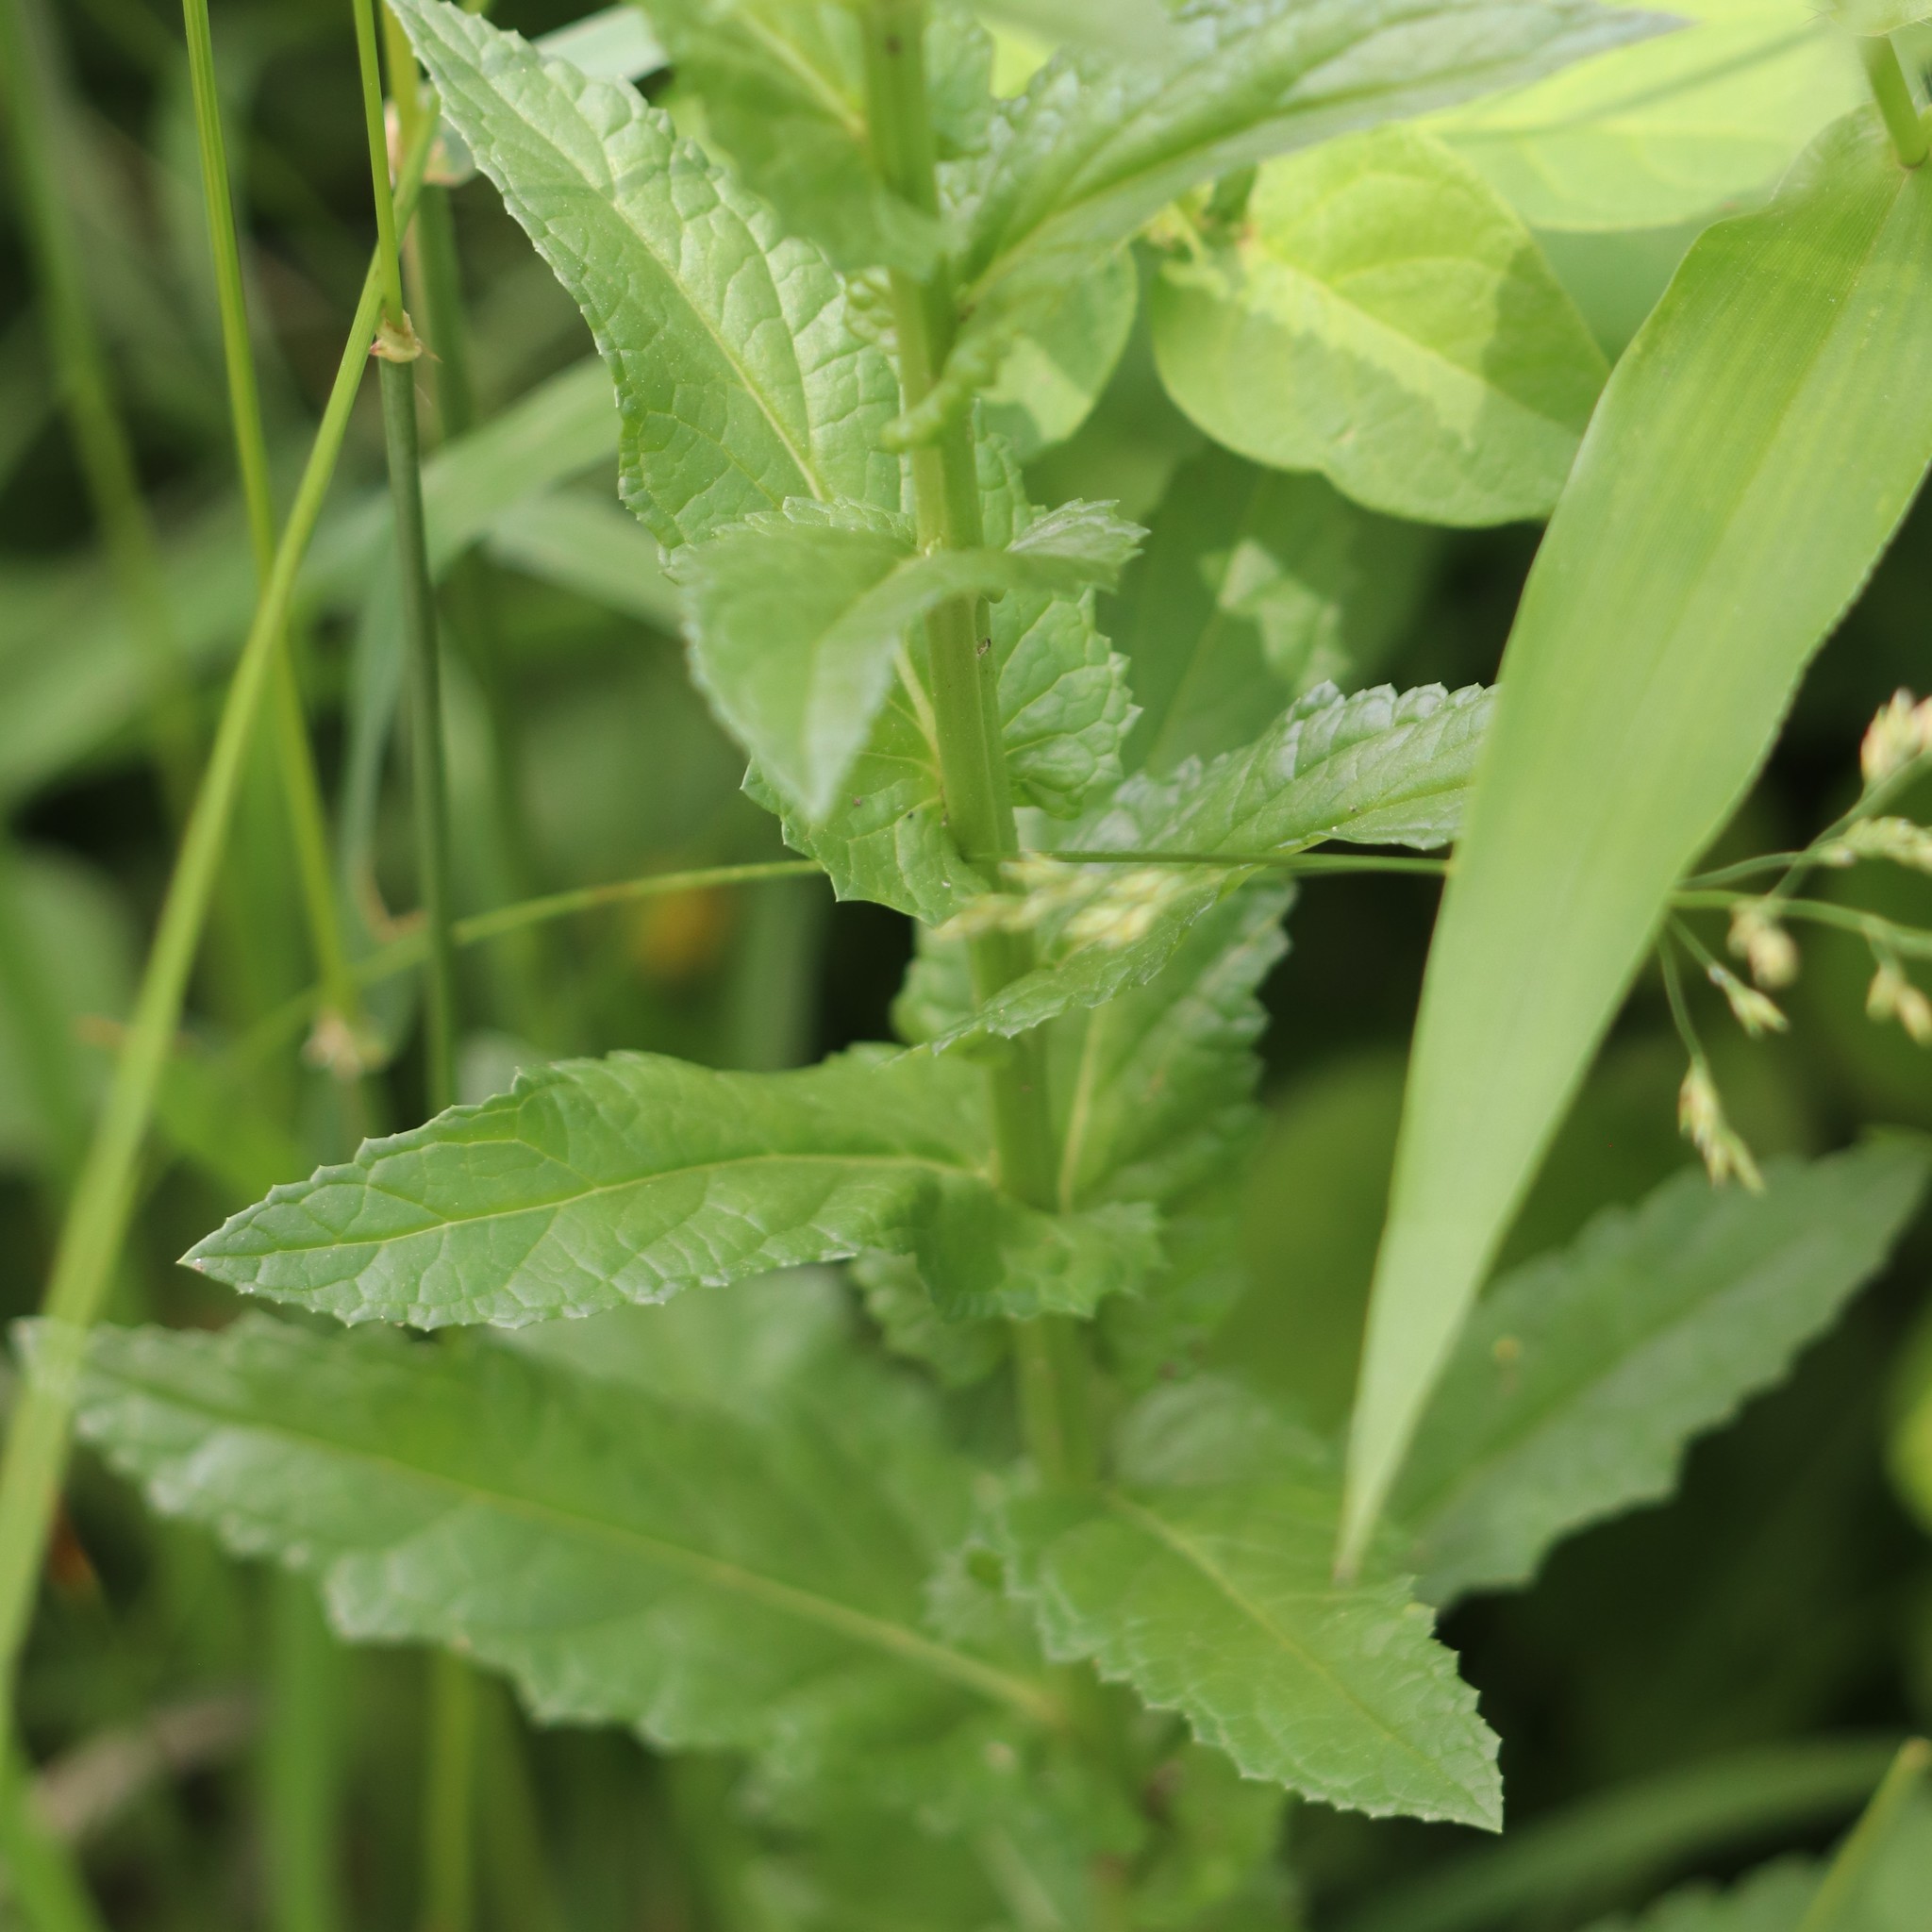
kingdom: Plantae
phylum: Tracheophyta
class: Magnoliopsida
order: Lamiales
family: Scrophulariaceae
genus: Verbascum
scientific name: Verbascum blattaria
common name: Moth mullein
